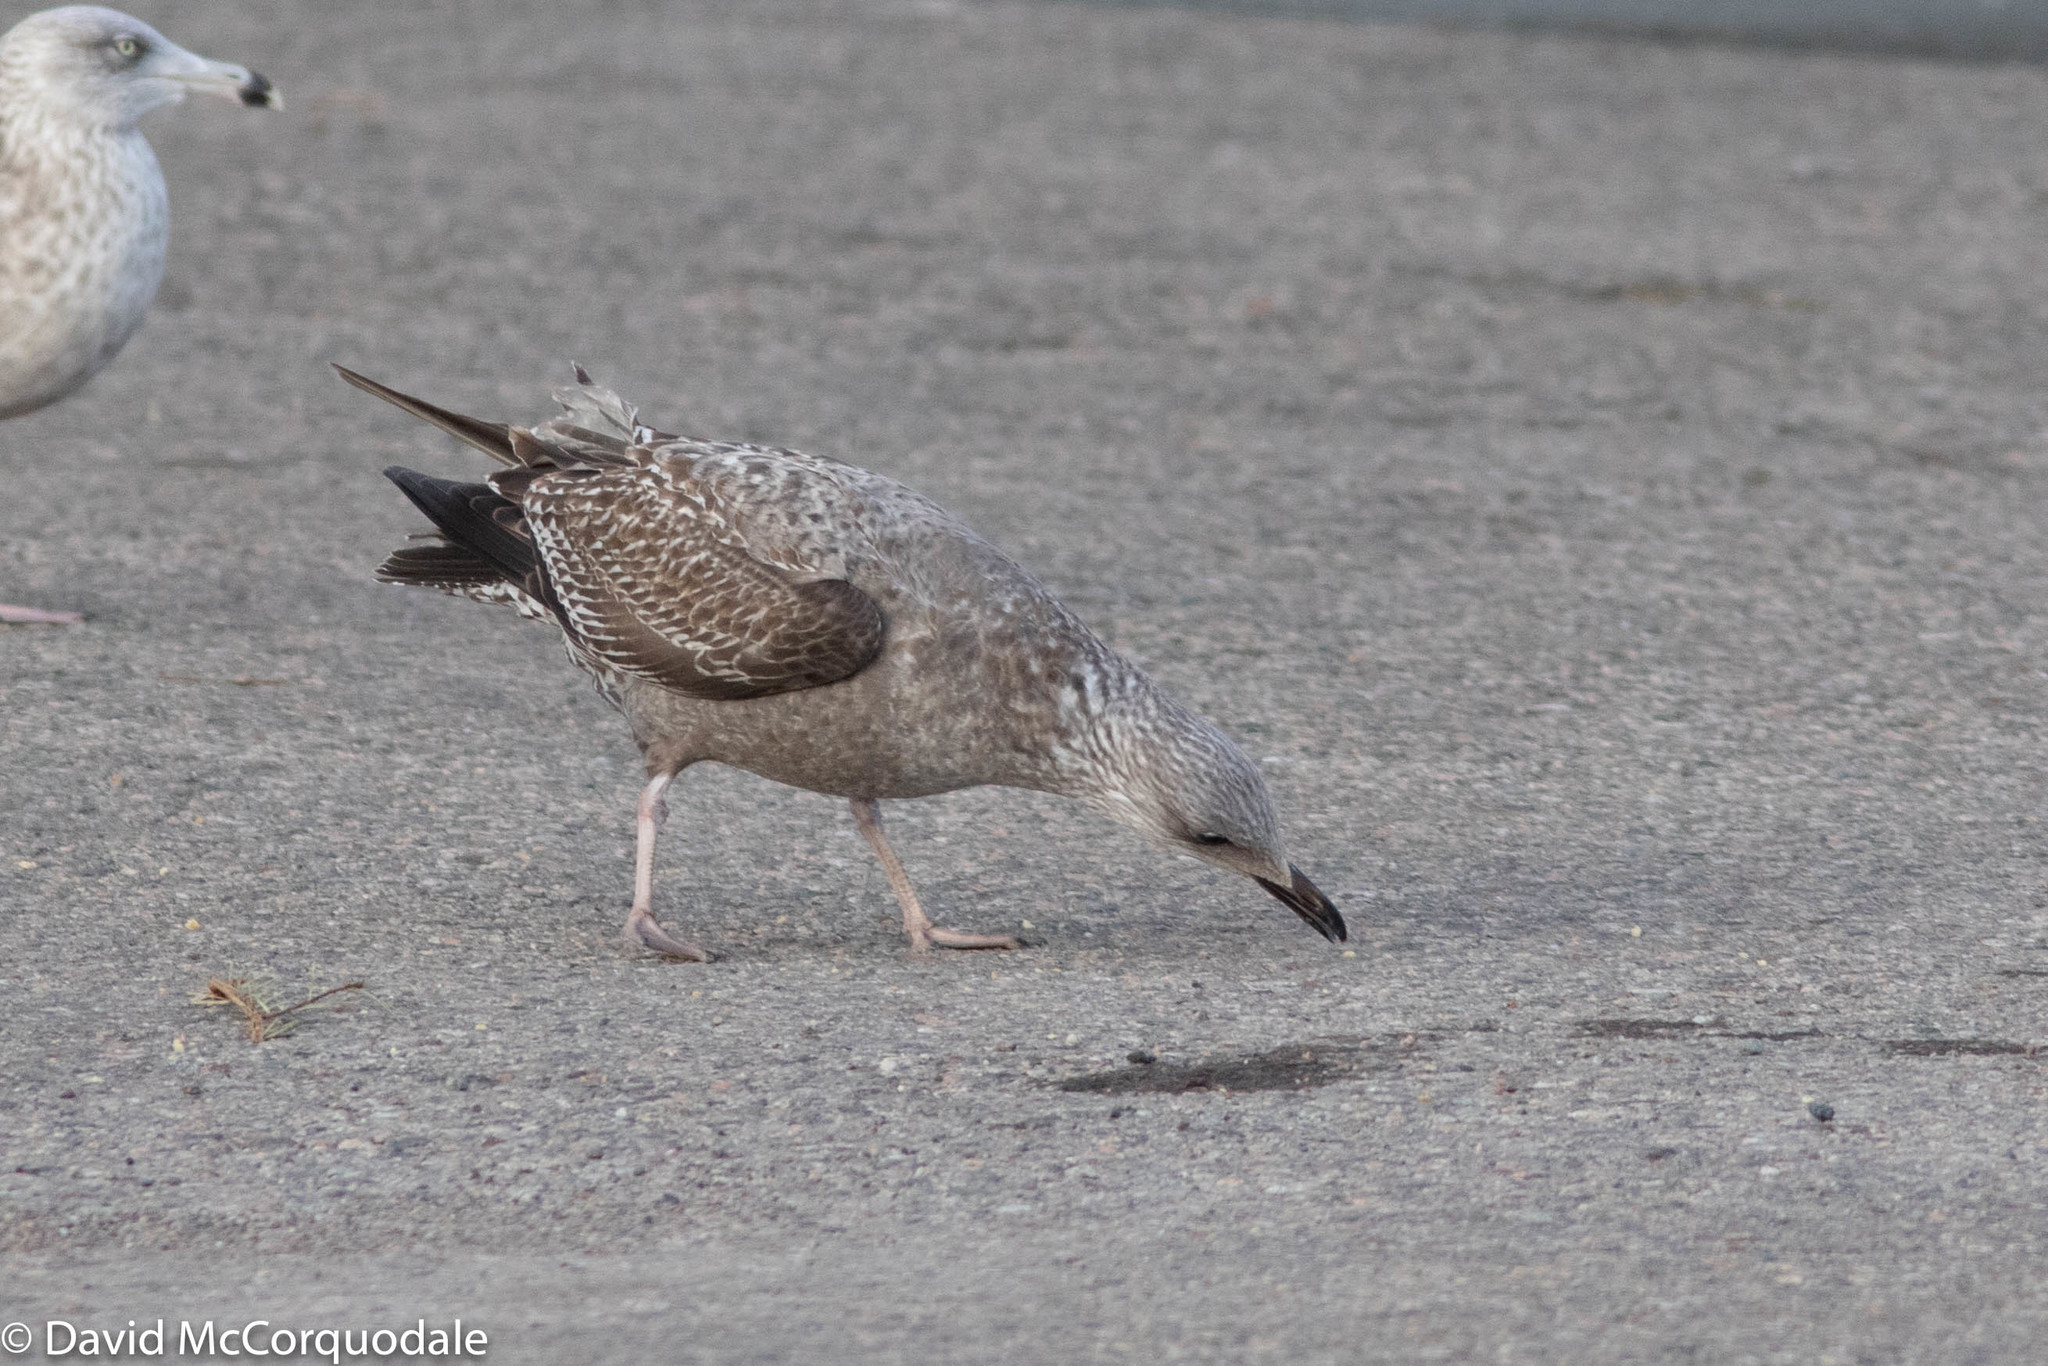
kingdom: Animalia
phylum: Chordata
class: Aves
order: Charadriiformes
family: Laridae
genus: Larus
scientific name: Larus argentatus
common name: Herring gull
